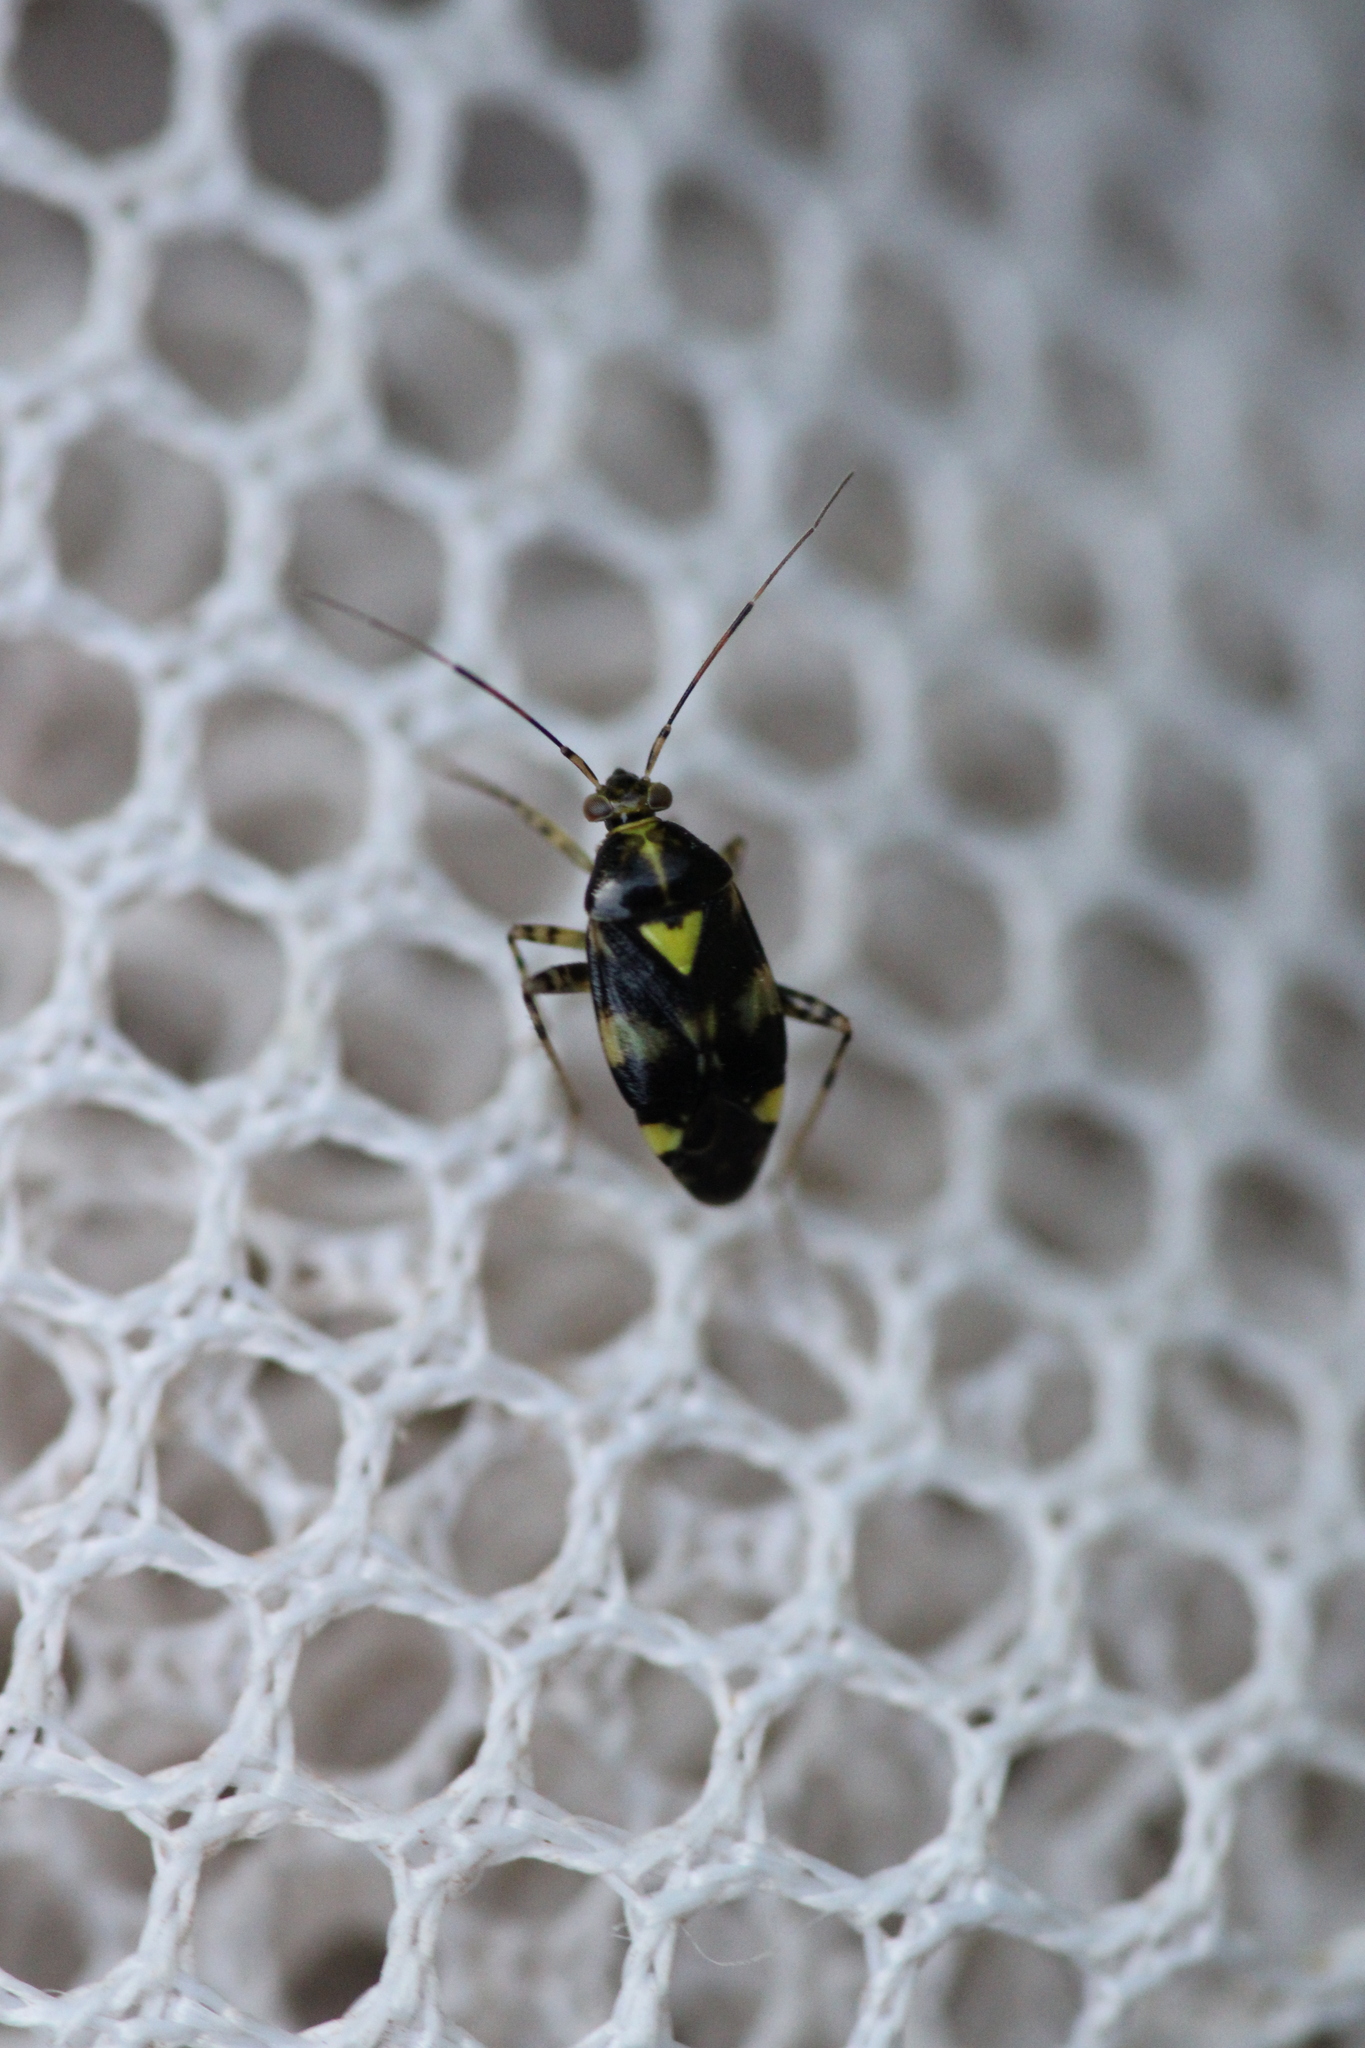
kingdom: Animalia
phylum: Arthropoda
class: Insecta
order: Hemiptera
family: Miridae
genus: Liocoris
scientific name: Liocoris tripustulatus
